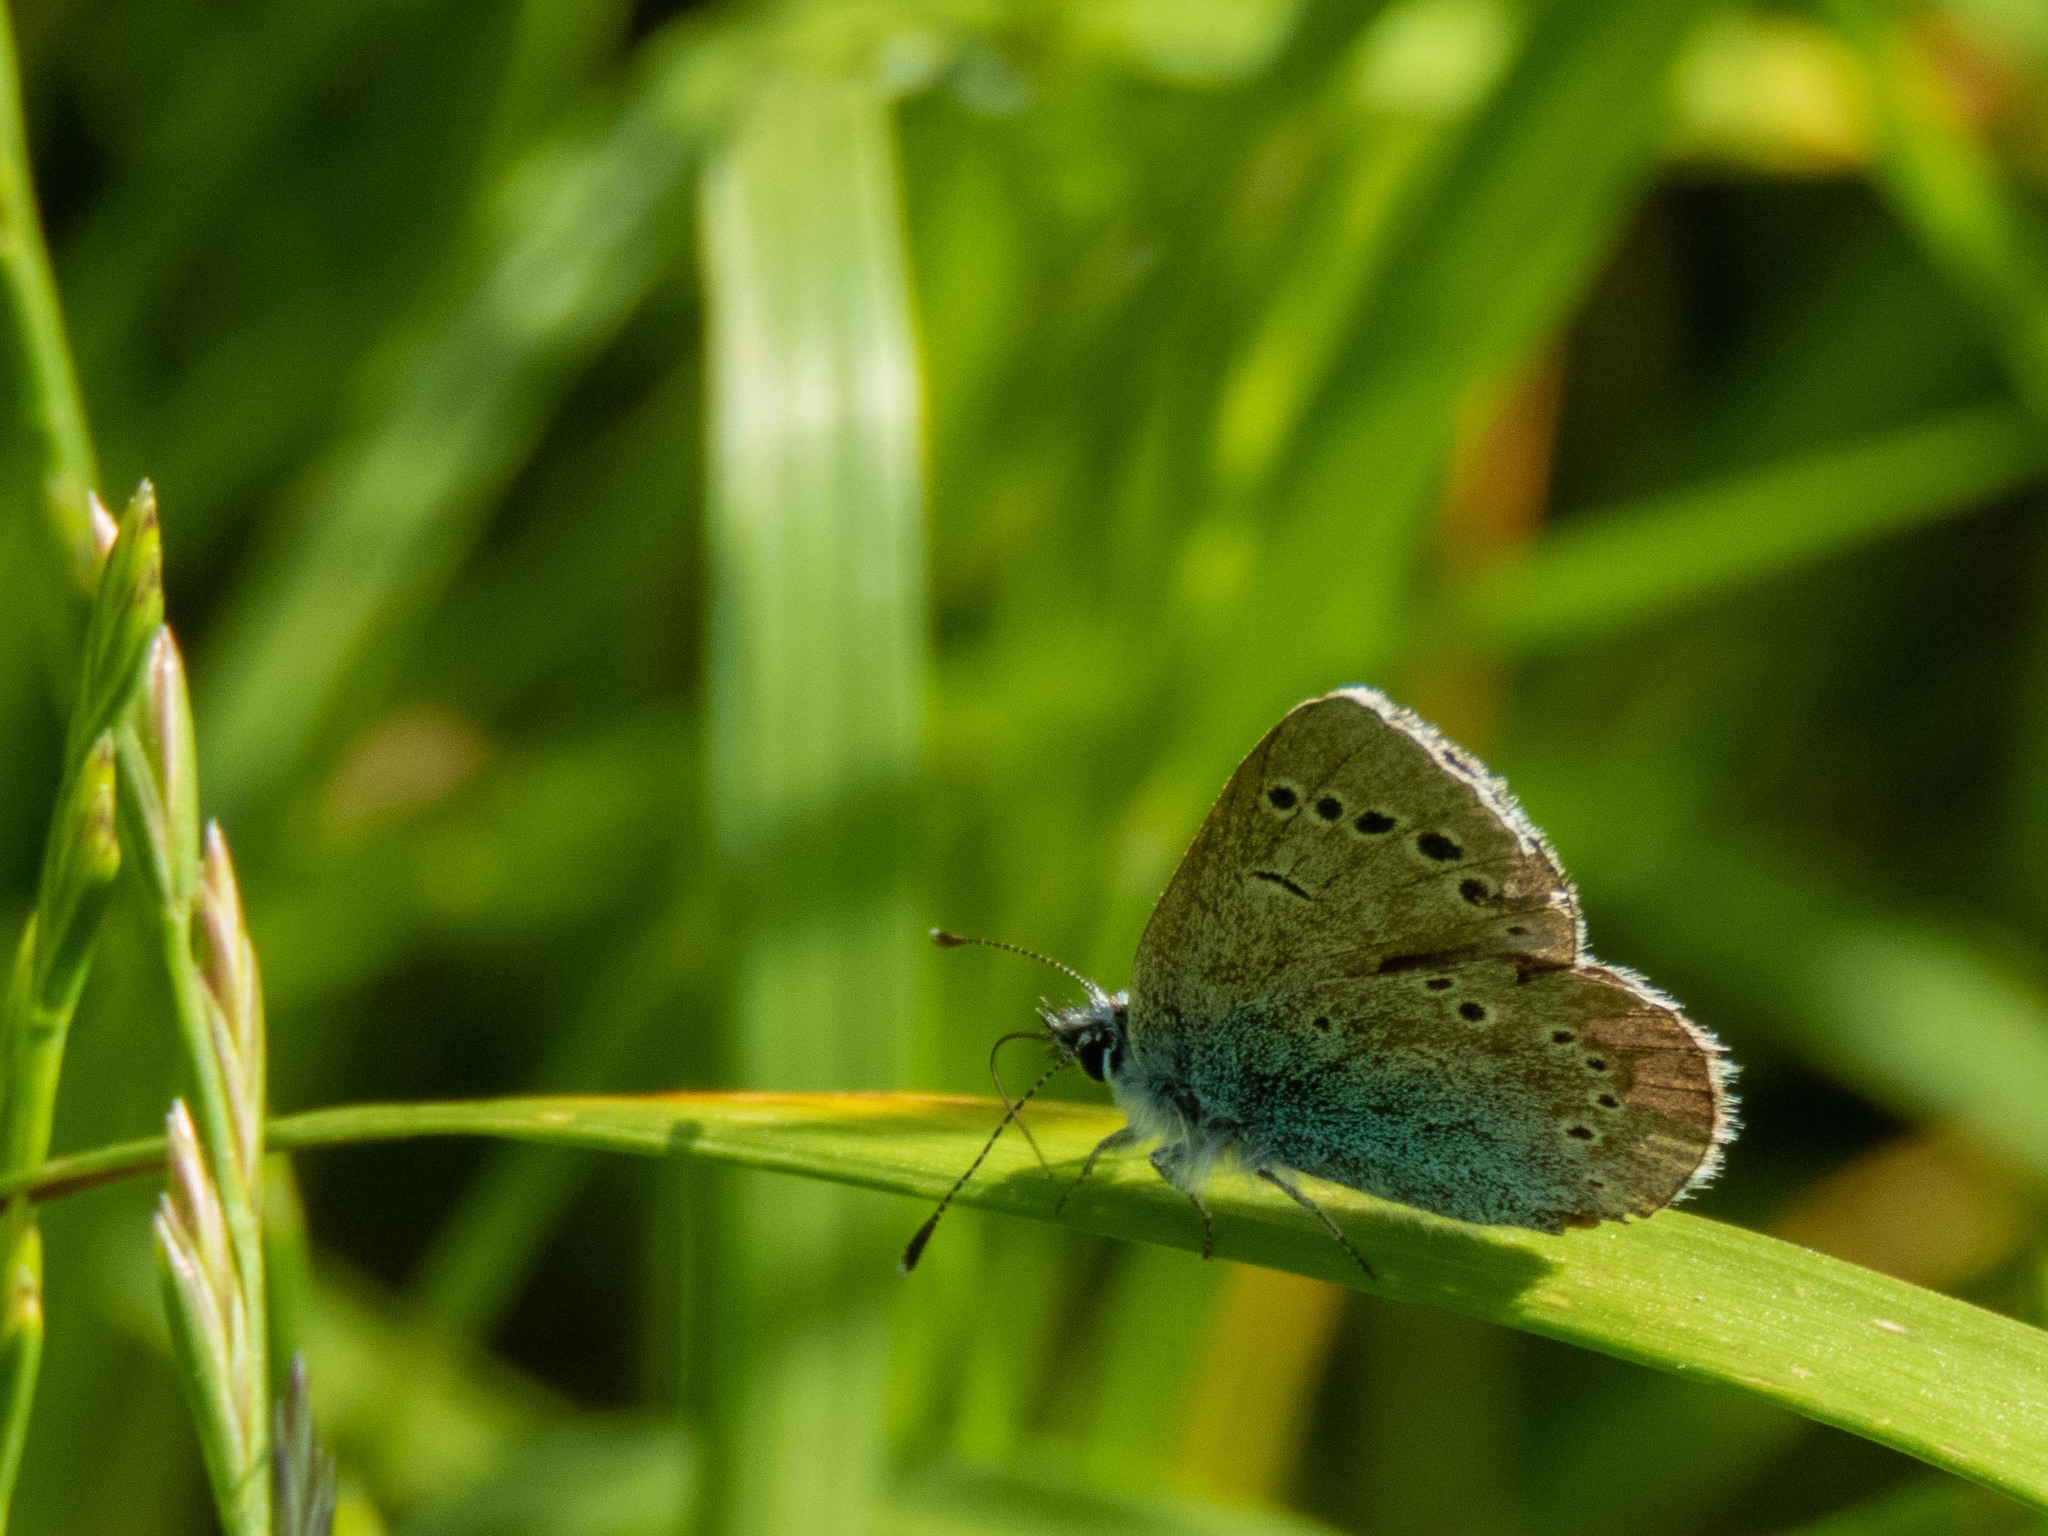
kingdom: Animalia
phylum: Arthropoda
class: Insecta
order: Lepidoptera
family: Lycaenidae
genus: Glaucopsyche
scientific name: Glaucopsyche melanops
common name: Black-eyed blue
